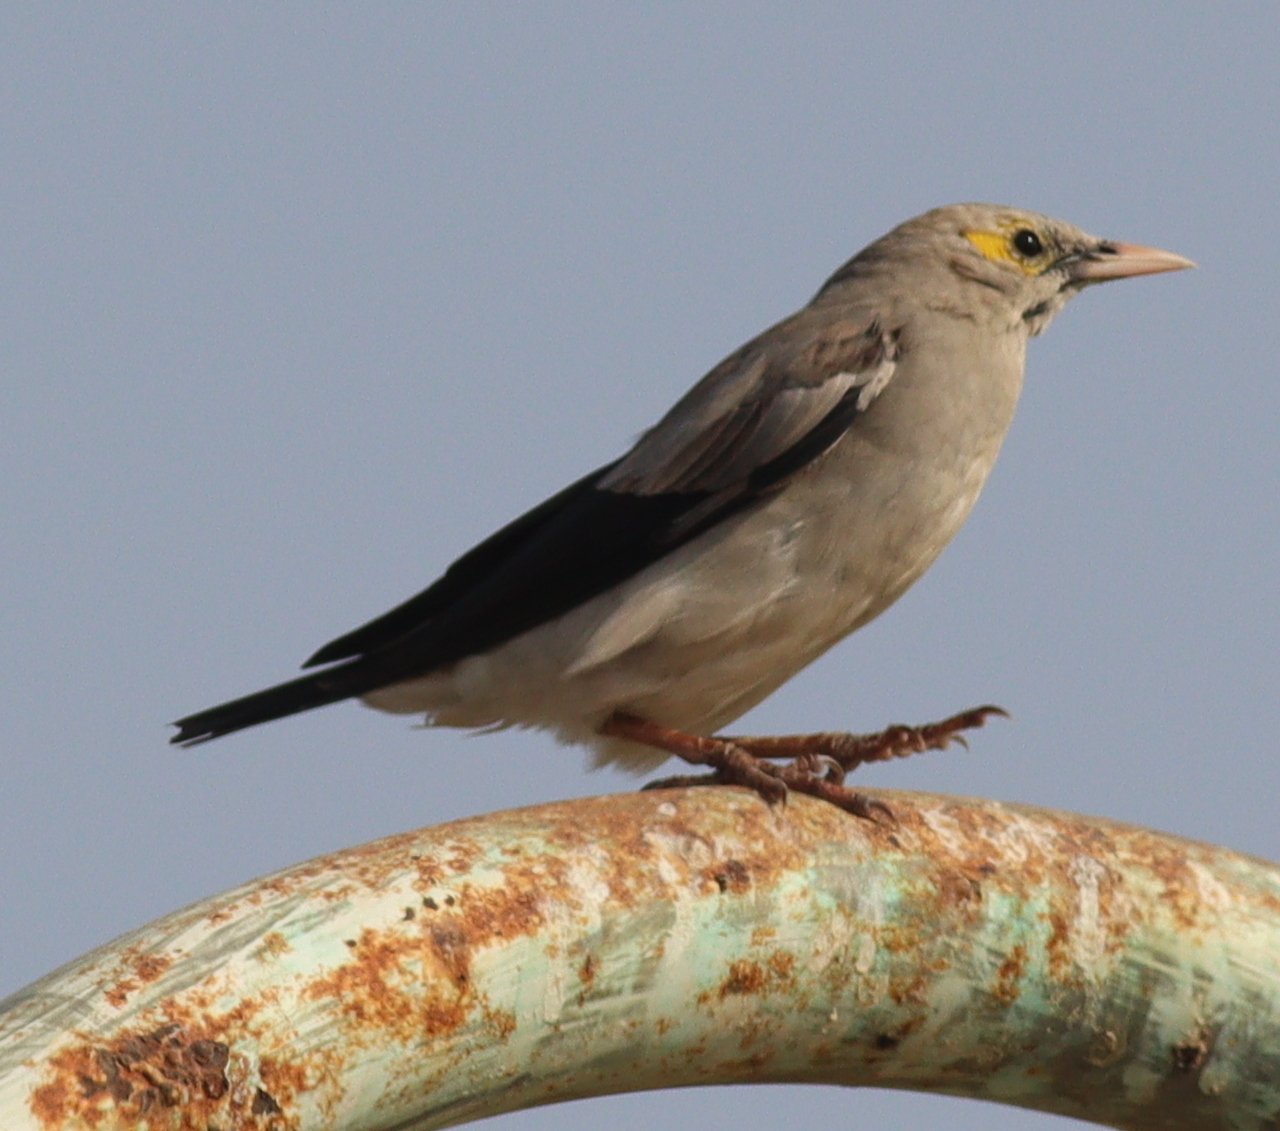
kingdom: Animalia
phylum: Chordata
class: Aves
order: Passeriformes
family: Sturnidae
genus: Creatophora
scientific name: Creatophora cinerea
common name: Wattled starling
